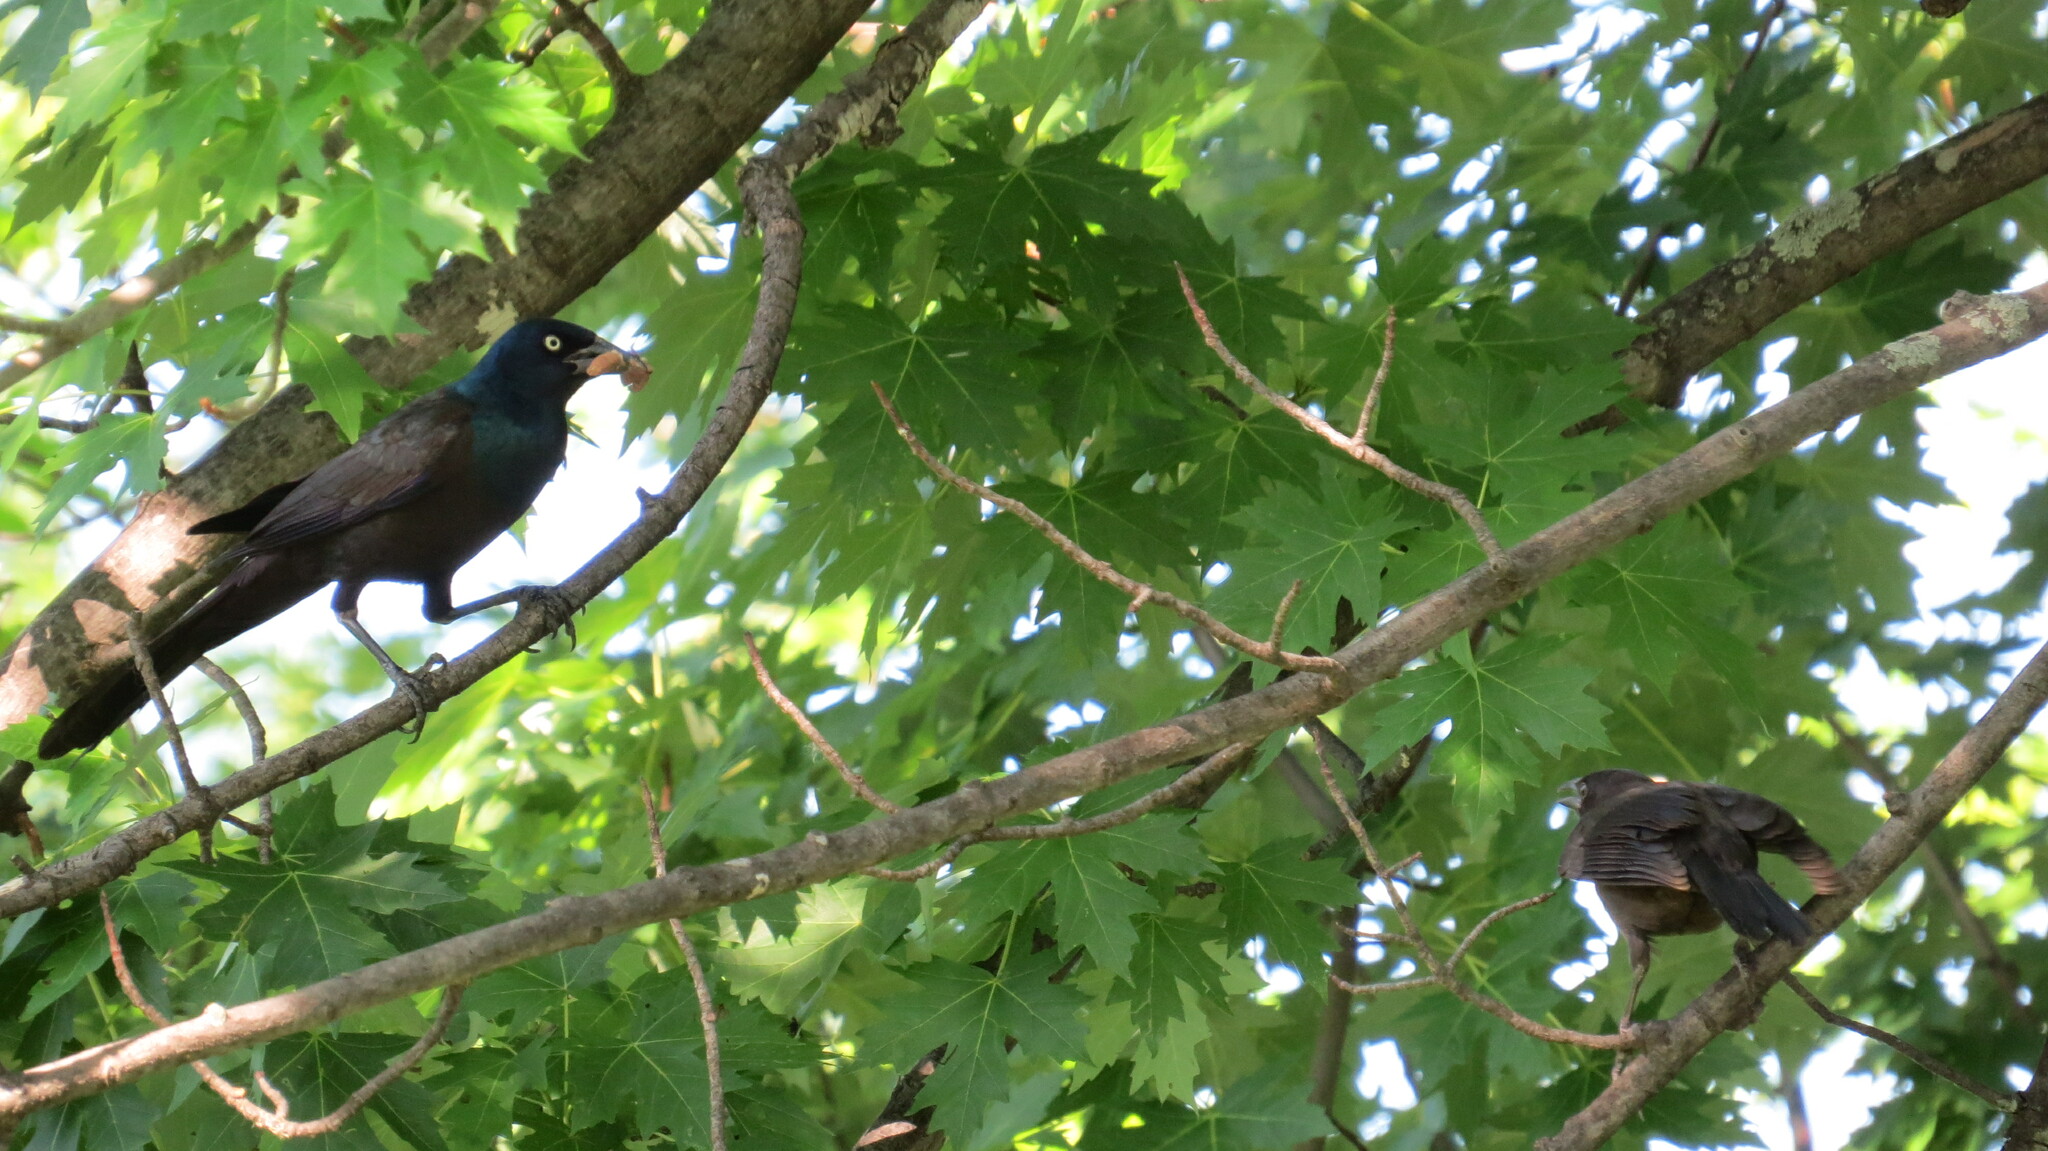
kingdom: Animalia
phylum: Chordata
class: Aves
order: Passeriformes
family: Icteridae
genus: Quiscalus
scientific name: Quiscalus quiscula
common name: Common grackle
